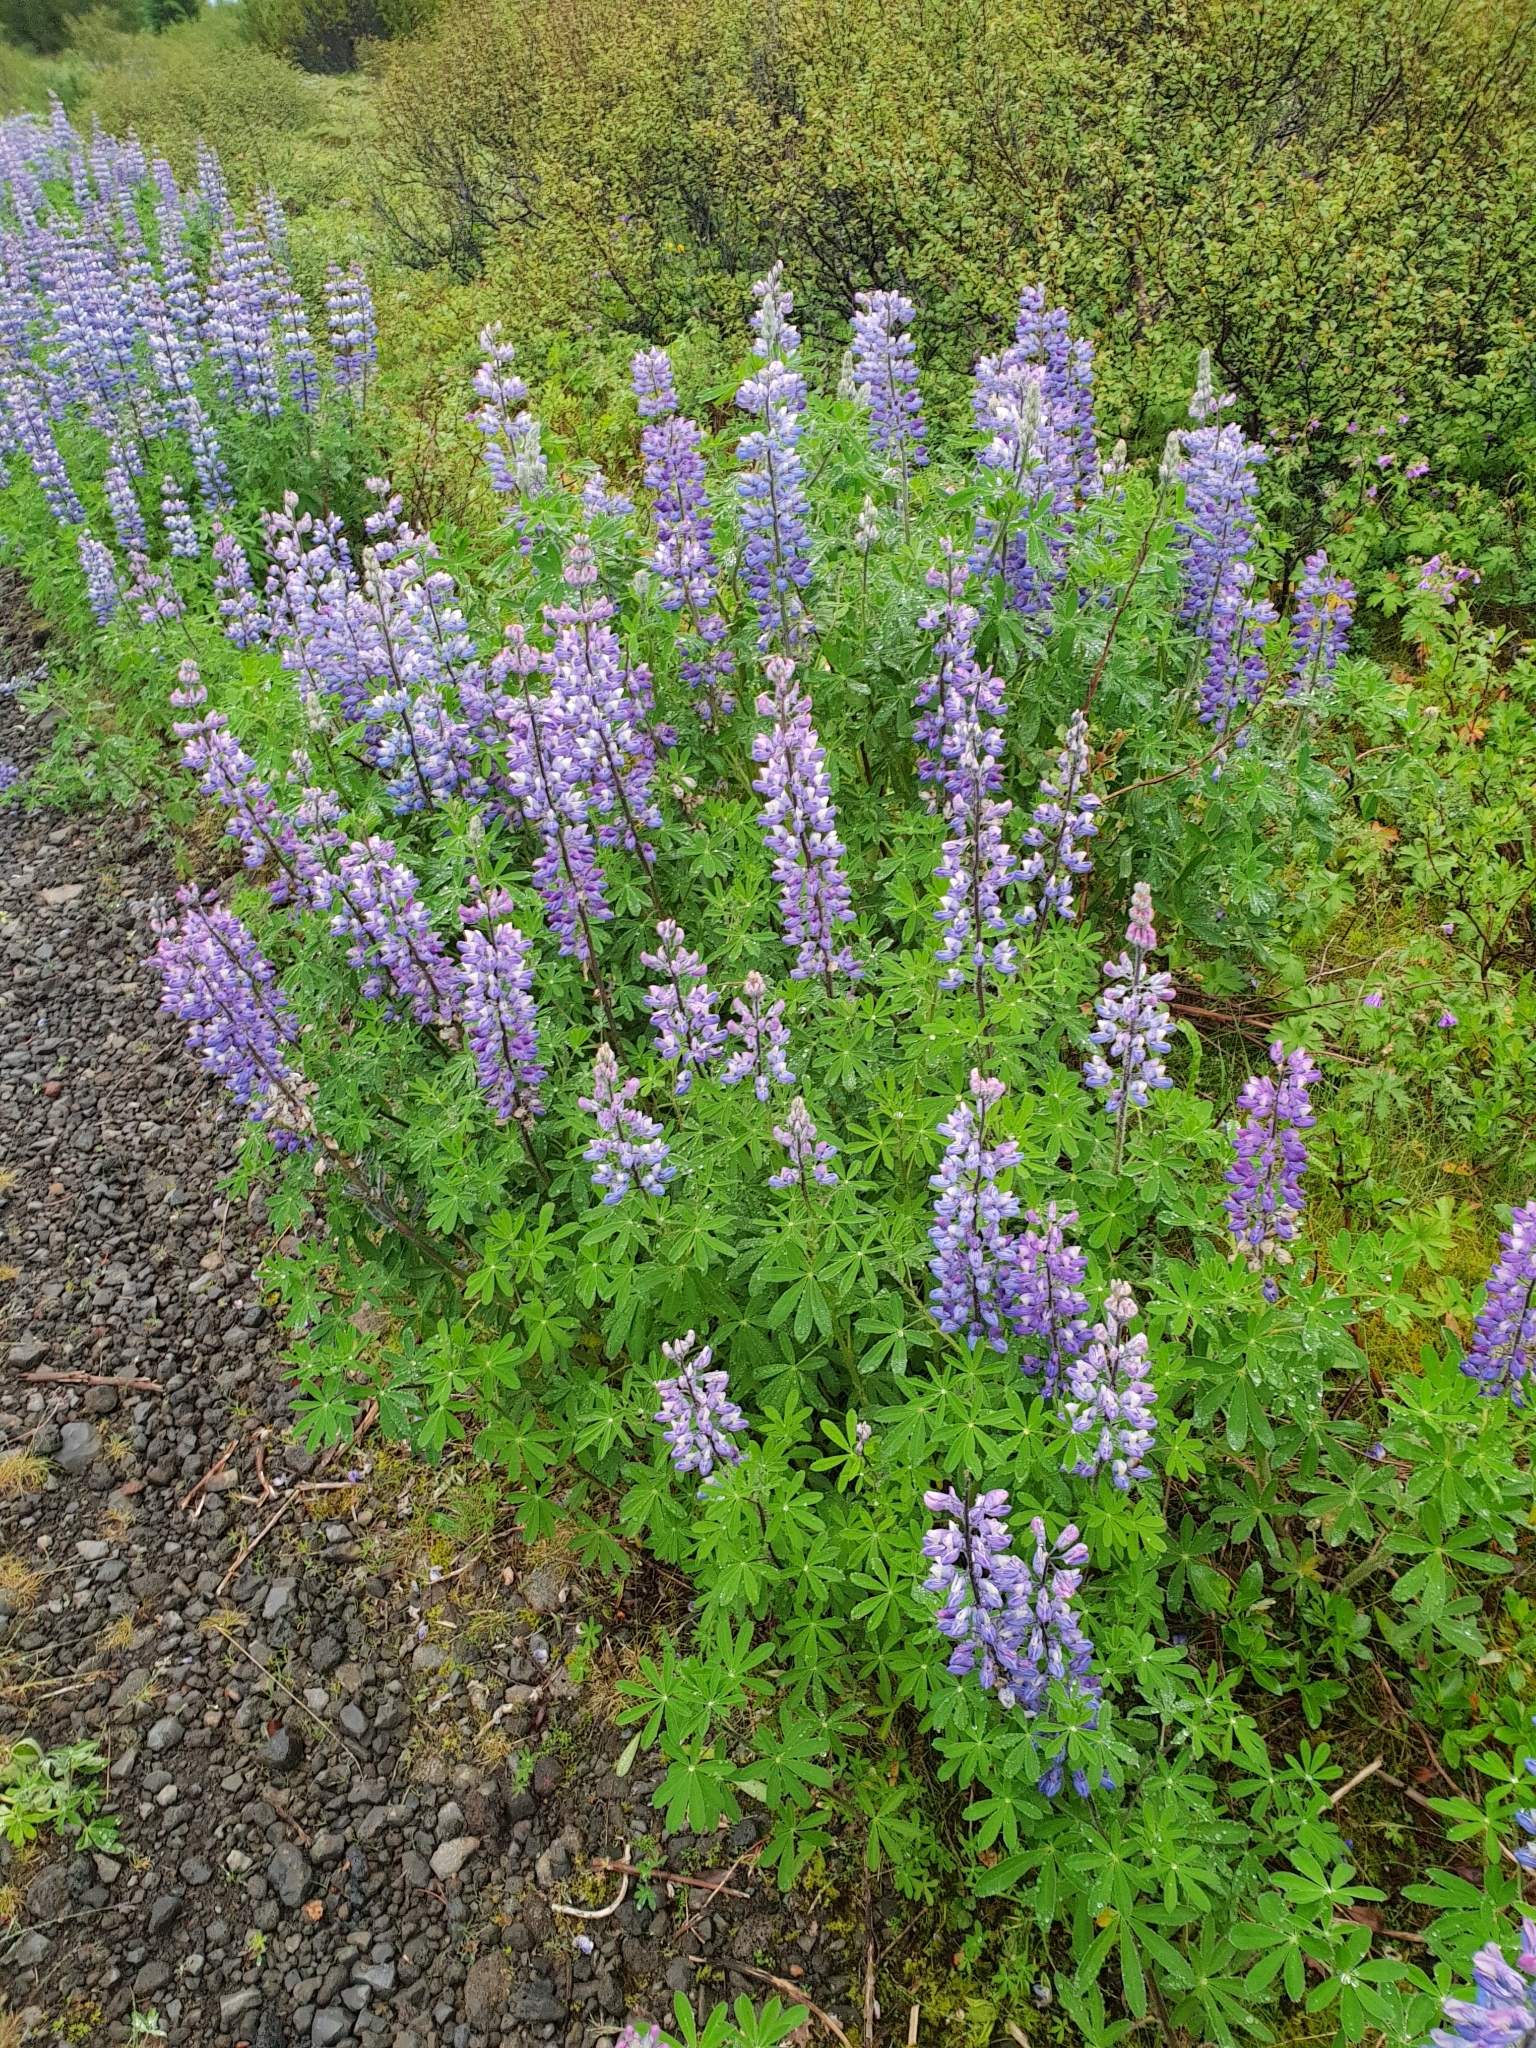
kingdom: Plantae
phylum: Tracheophyta
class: Magnoliopsida
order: Fabales
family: Fabaceae
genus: Lupinus
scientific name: Lupinus nootkatensis
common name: Nootka lupine
